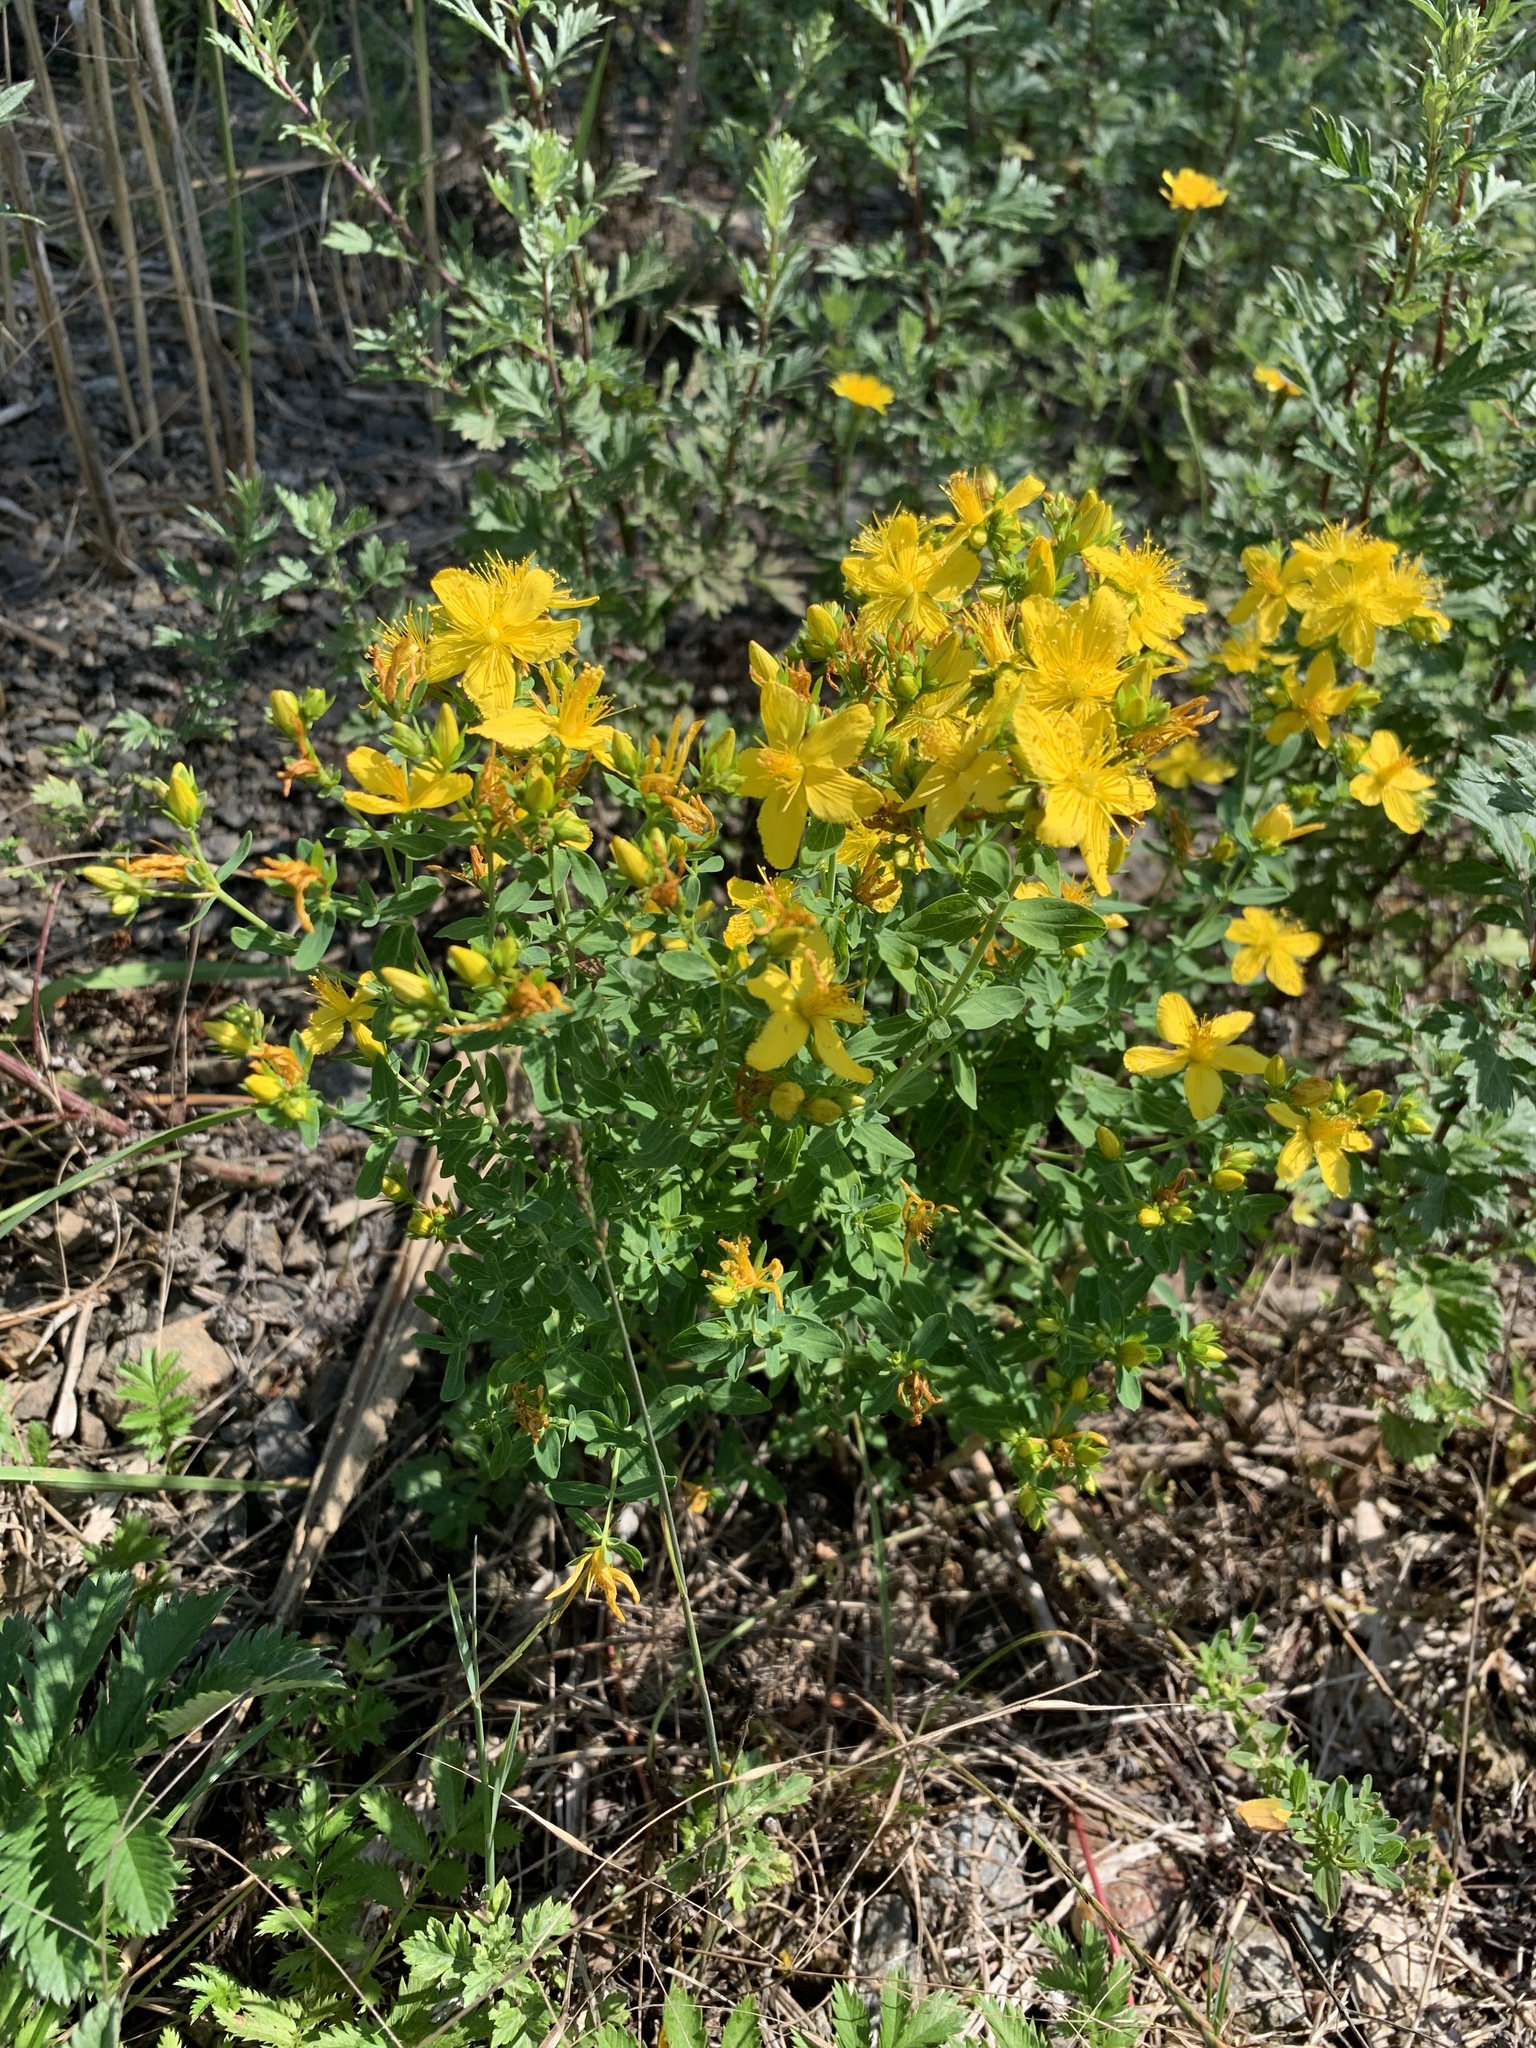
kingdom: Plantae
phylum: Tracheophyta
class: Magnoliopsida
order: Malpighiales
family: Hypericaceae
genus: Hypericum
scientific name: Hypericum perforatum
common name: Common st. johnswort
